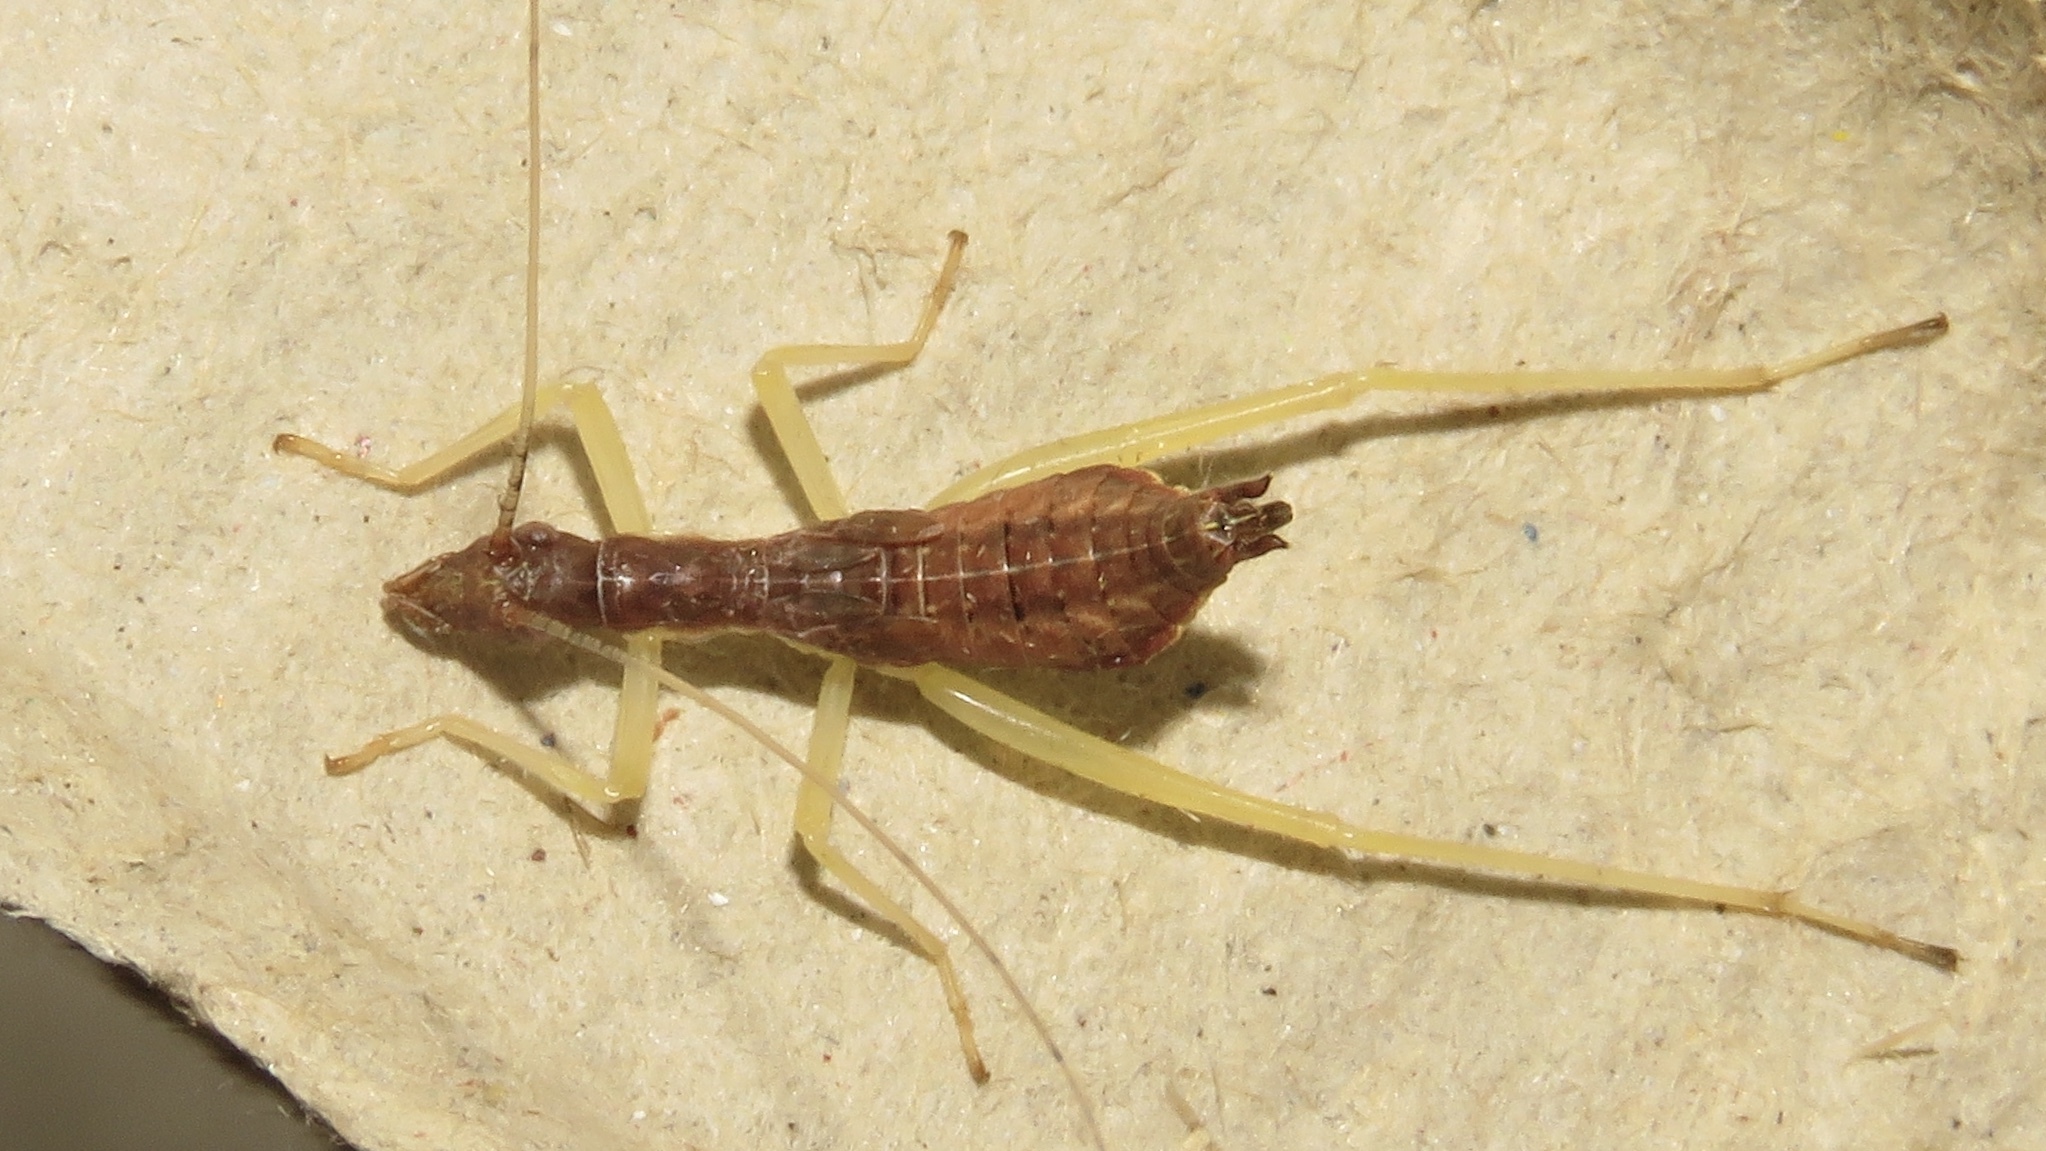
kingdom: Animalia
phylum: Arthropoda
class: Insecta
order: Orthoptera
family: Gryllidae
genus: Neoxabea
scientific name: Neoxabea bipunctata
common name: Two-spotted tree cricket
